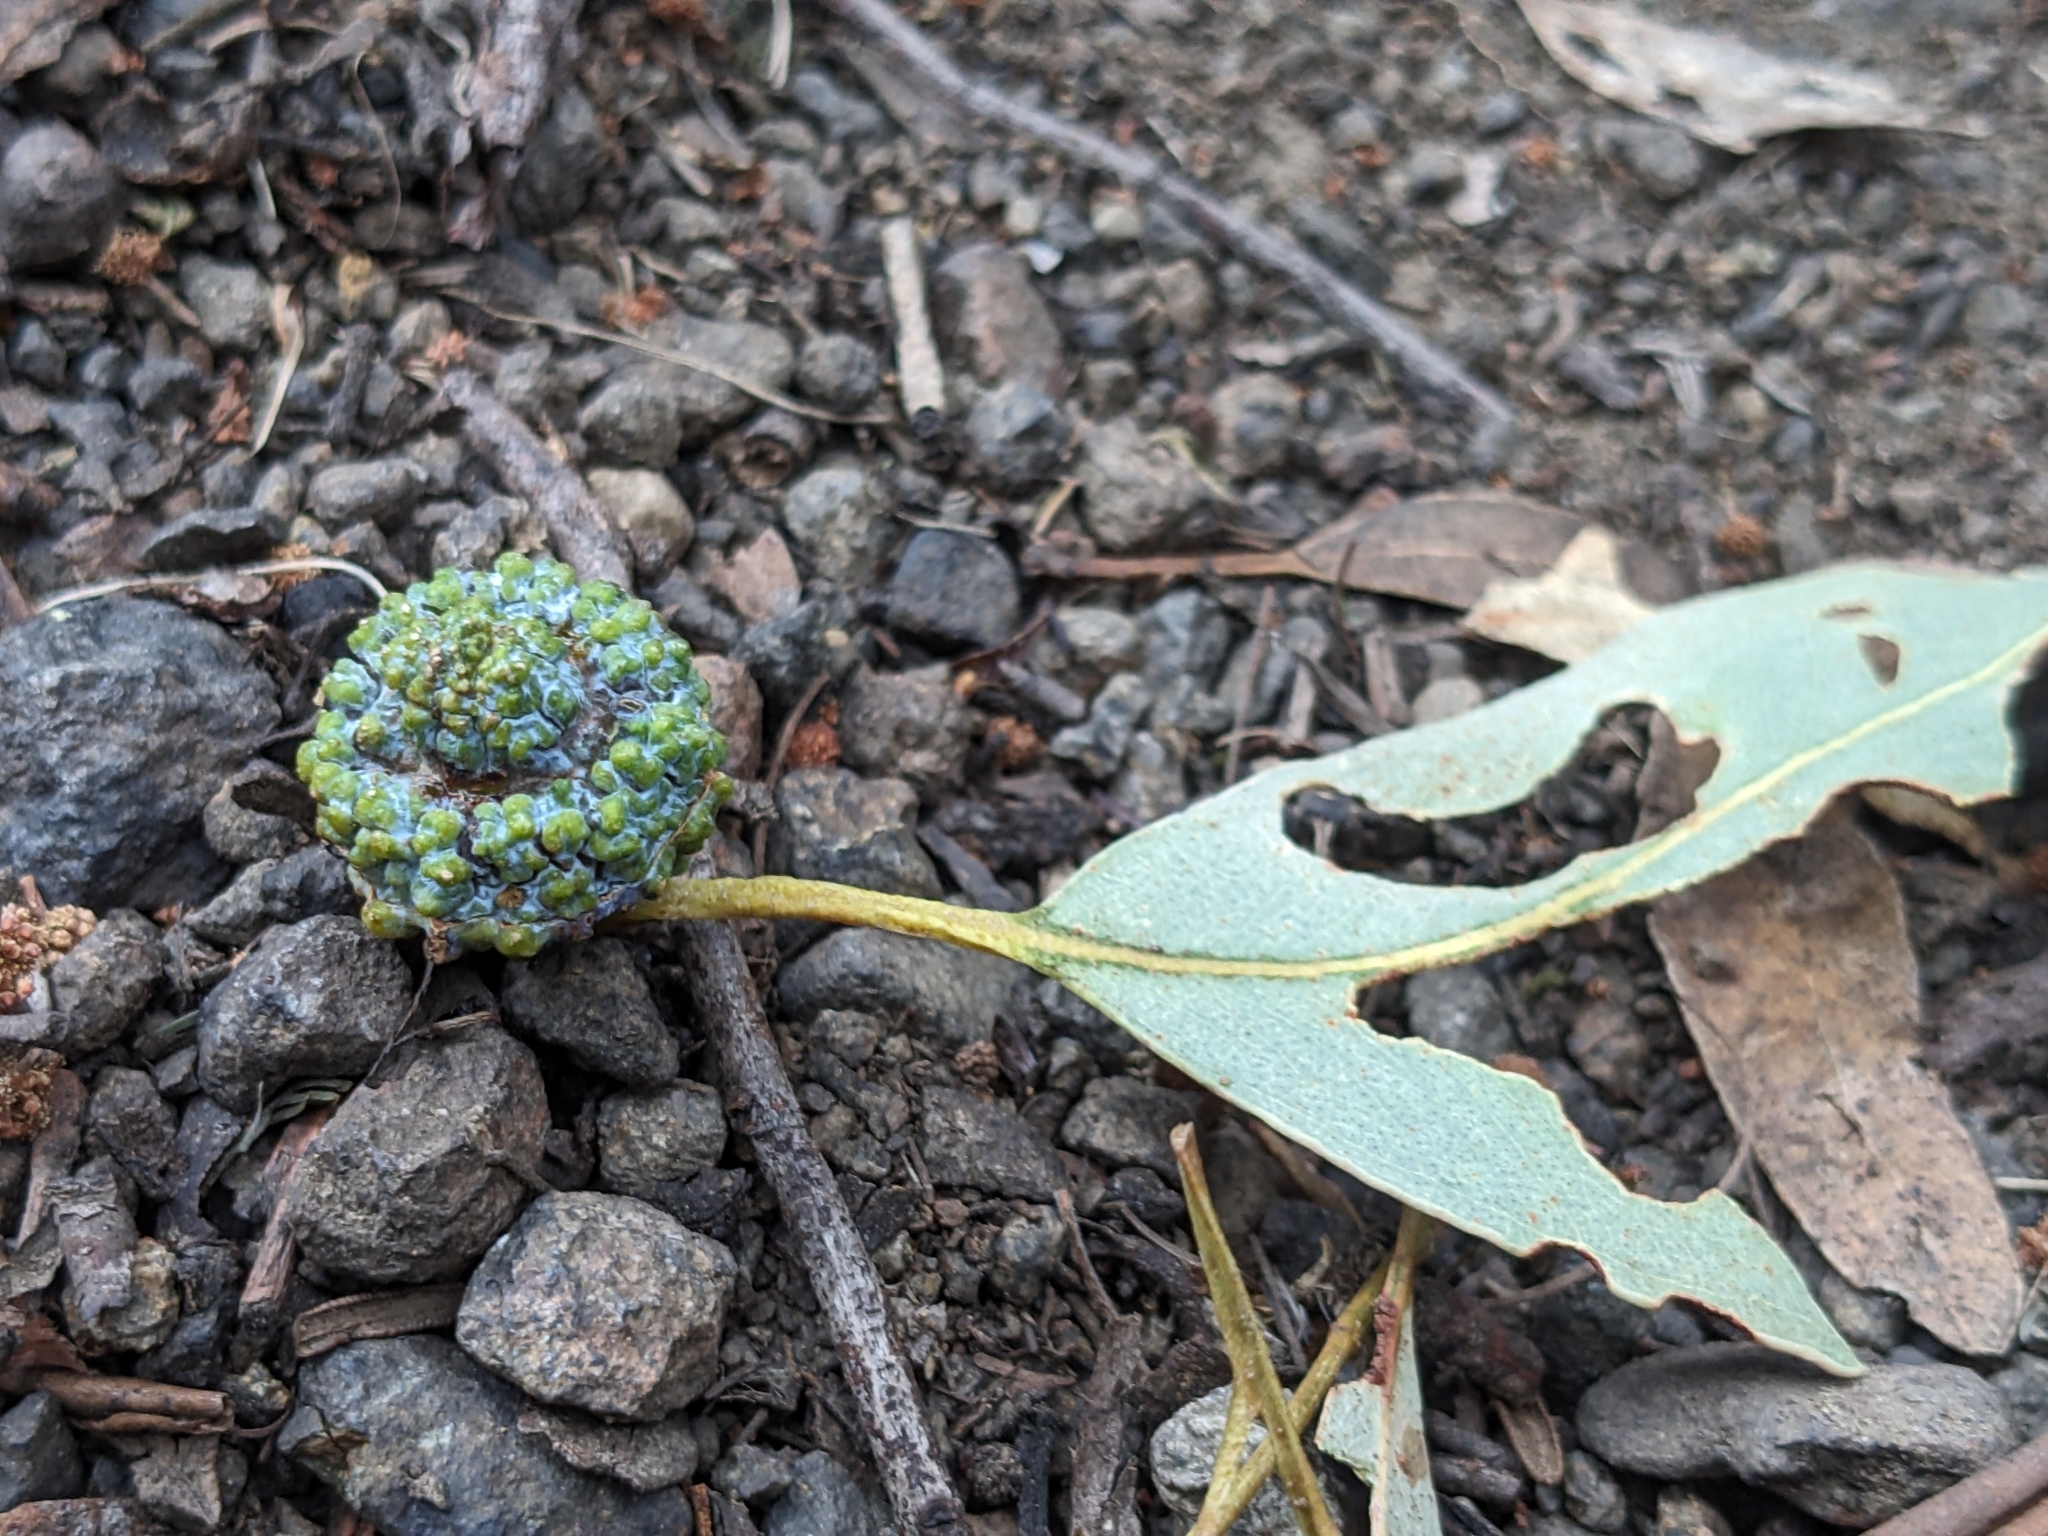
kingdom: Plantae
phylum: Tracheophyta
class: Magnoliopsida
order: Myrtales
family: Myrtaceae
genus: Eucalyptus
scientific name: Eucalyptus globulus
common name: Southern blue-gum
